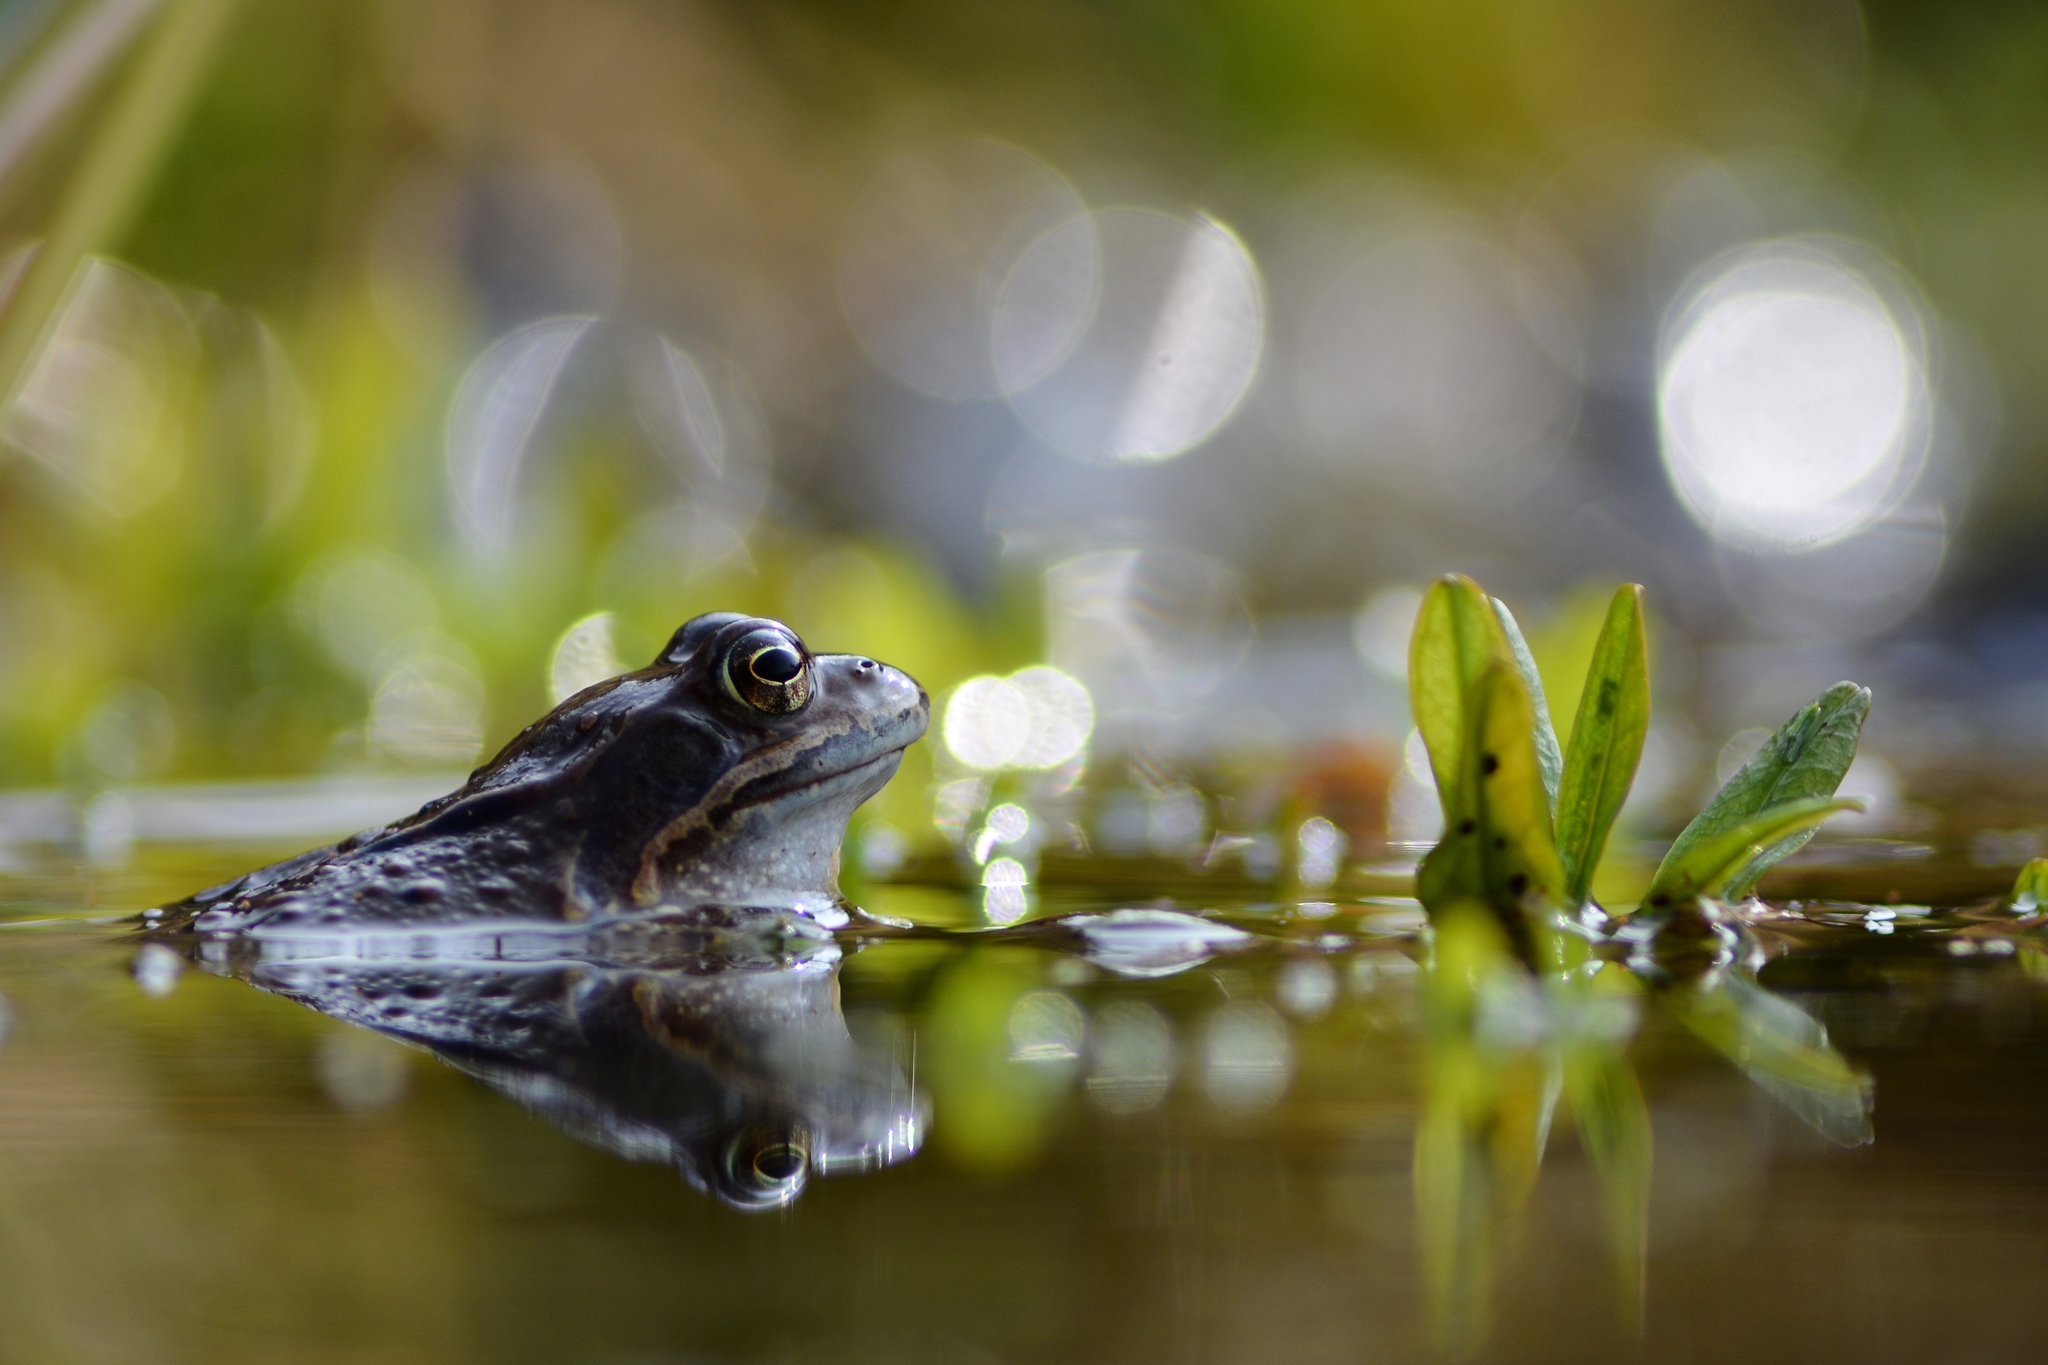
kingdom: Animalia
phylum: Chordata
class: Amphibia
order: Anura
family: Ranidae
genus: Rana
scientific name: Rana temporaria
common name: Common frog
